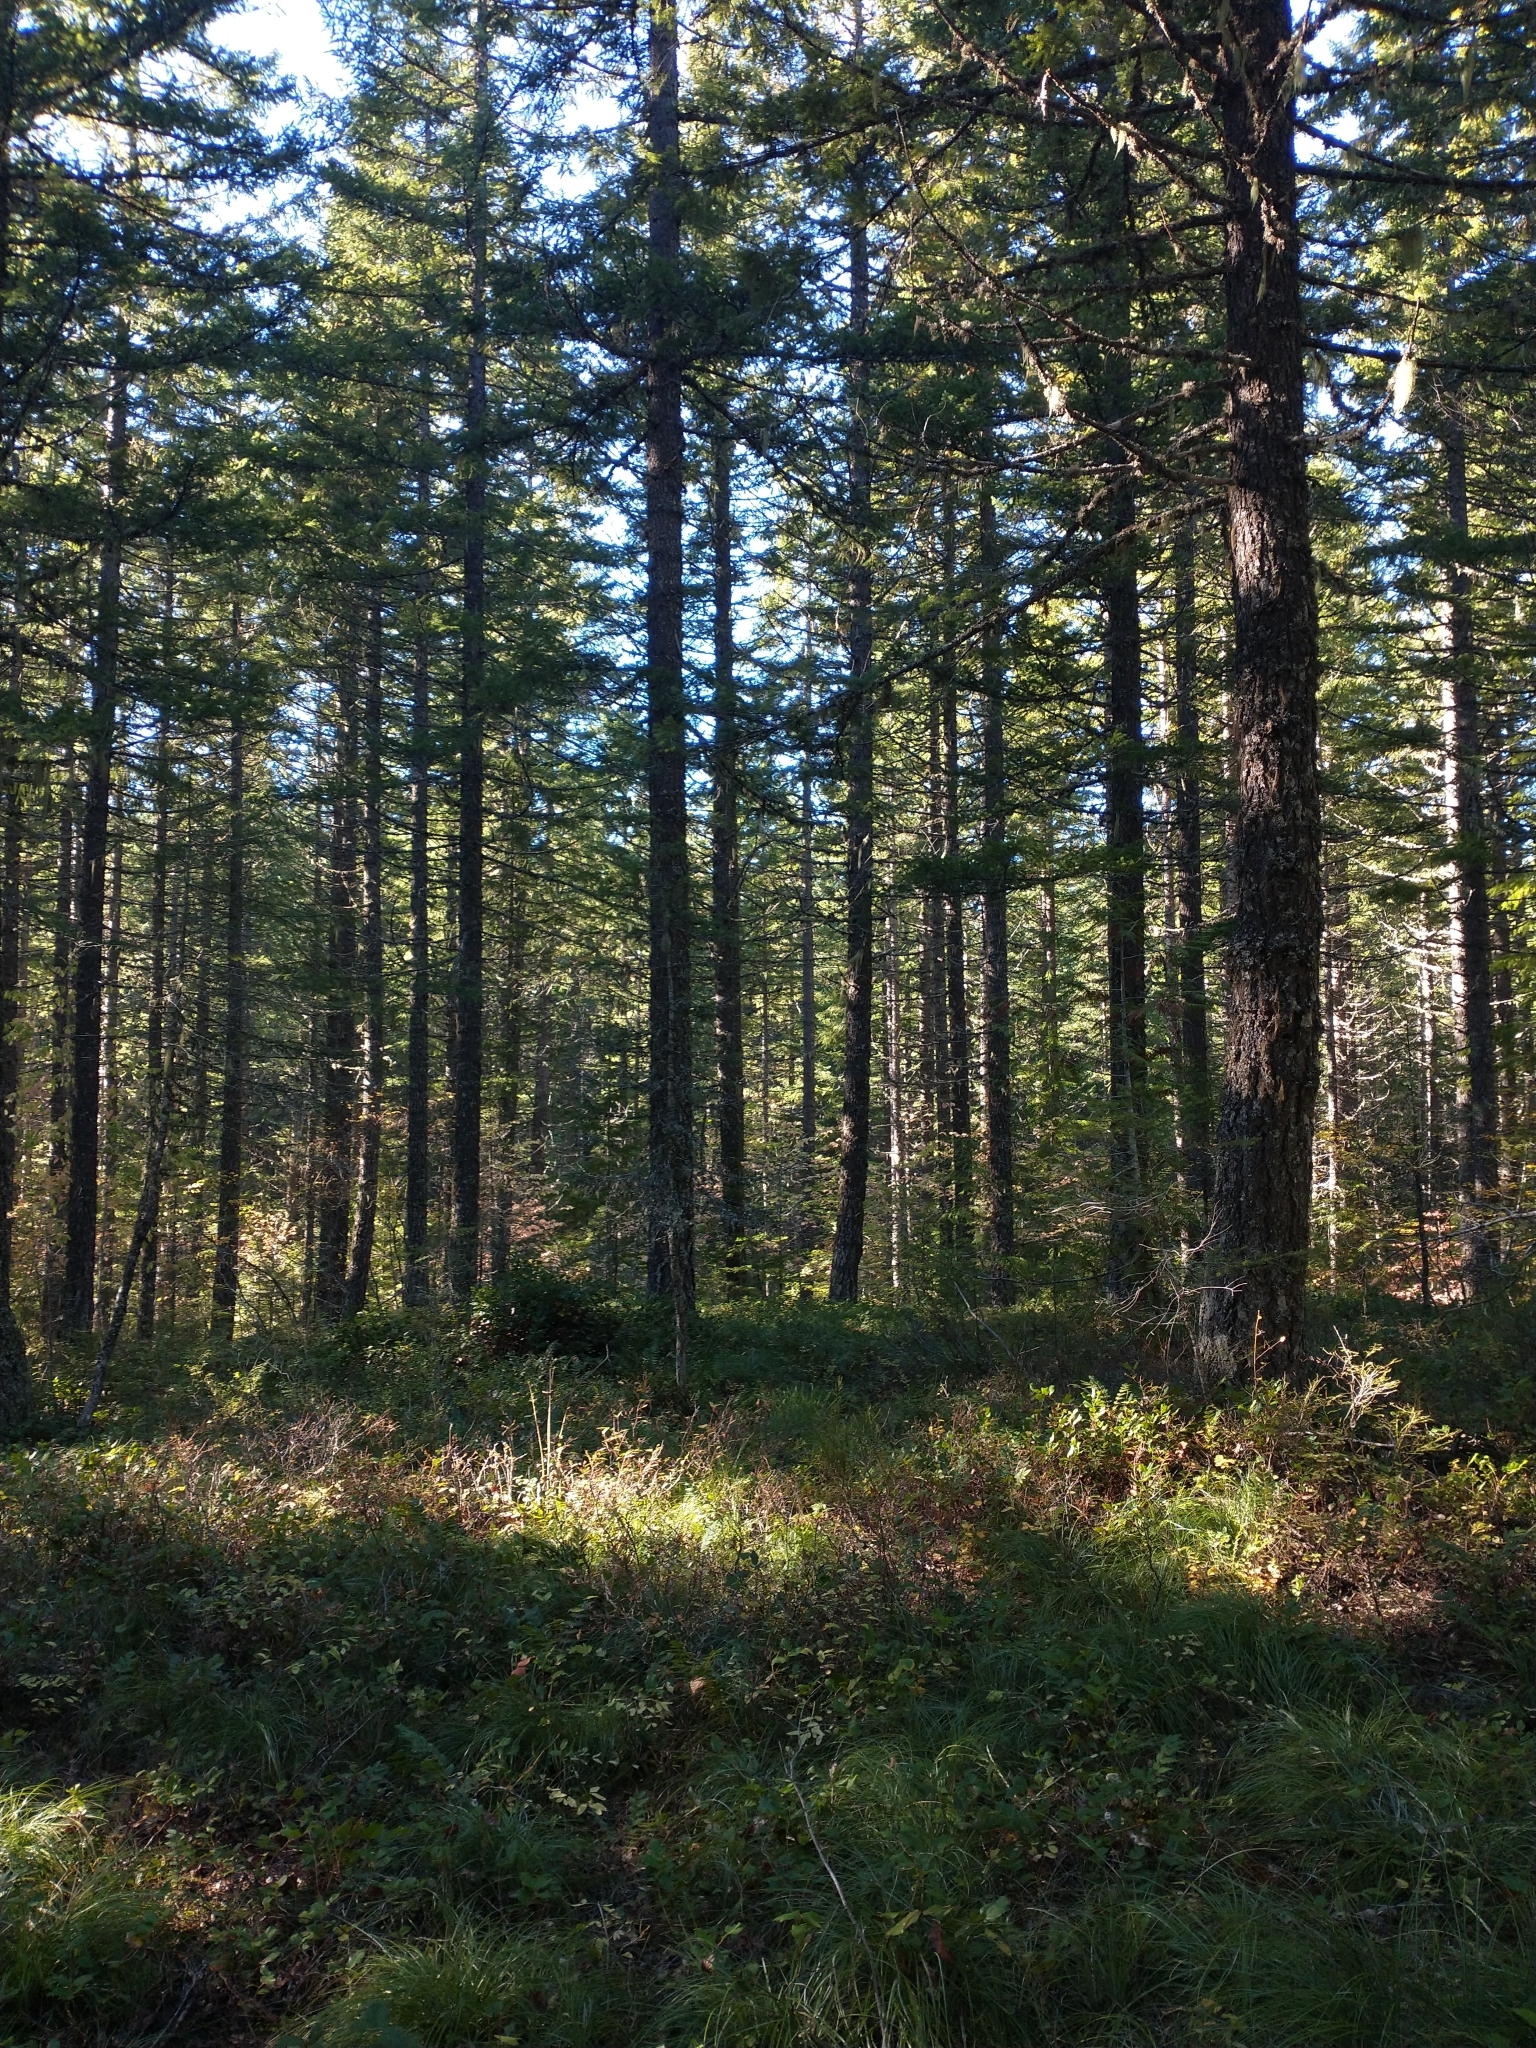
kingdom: Plantae
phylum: Tracheophyta
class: Pinopsida
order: Pinales
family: Pinaceae
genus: Pseudotsuga
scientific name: Pseudotsuga menziesii
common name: Douglas fir
